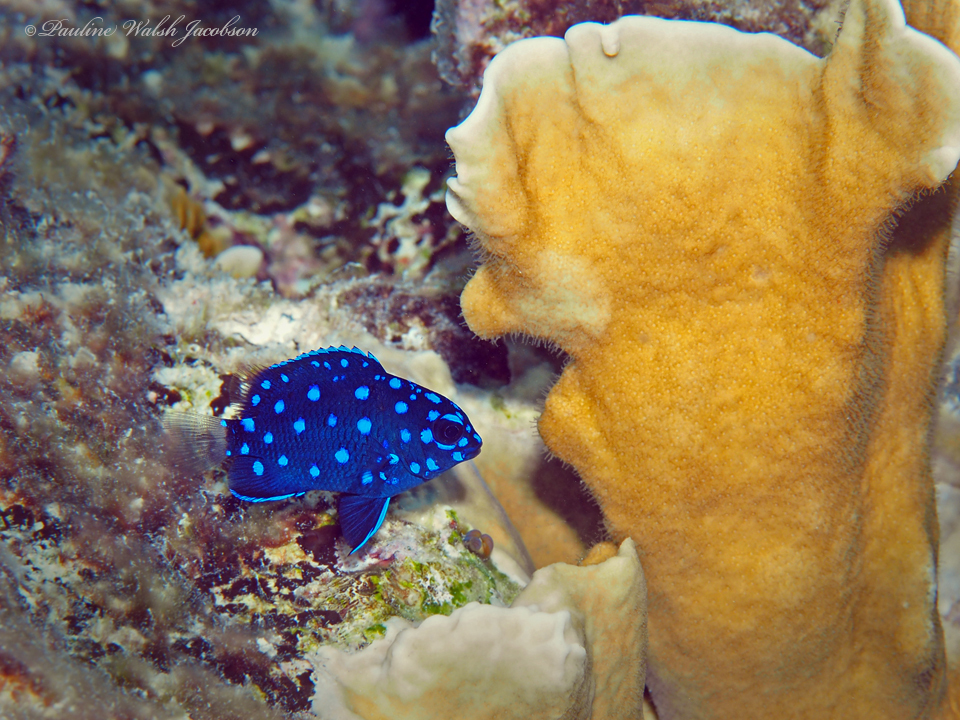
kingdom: Animalia
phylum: Chordata
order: Perciformes
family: Pomacentridae
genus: Microspathodon
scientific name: Microspathodon chrysurus
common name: Yellowtail damselfish
